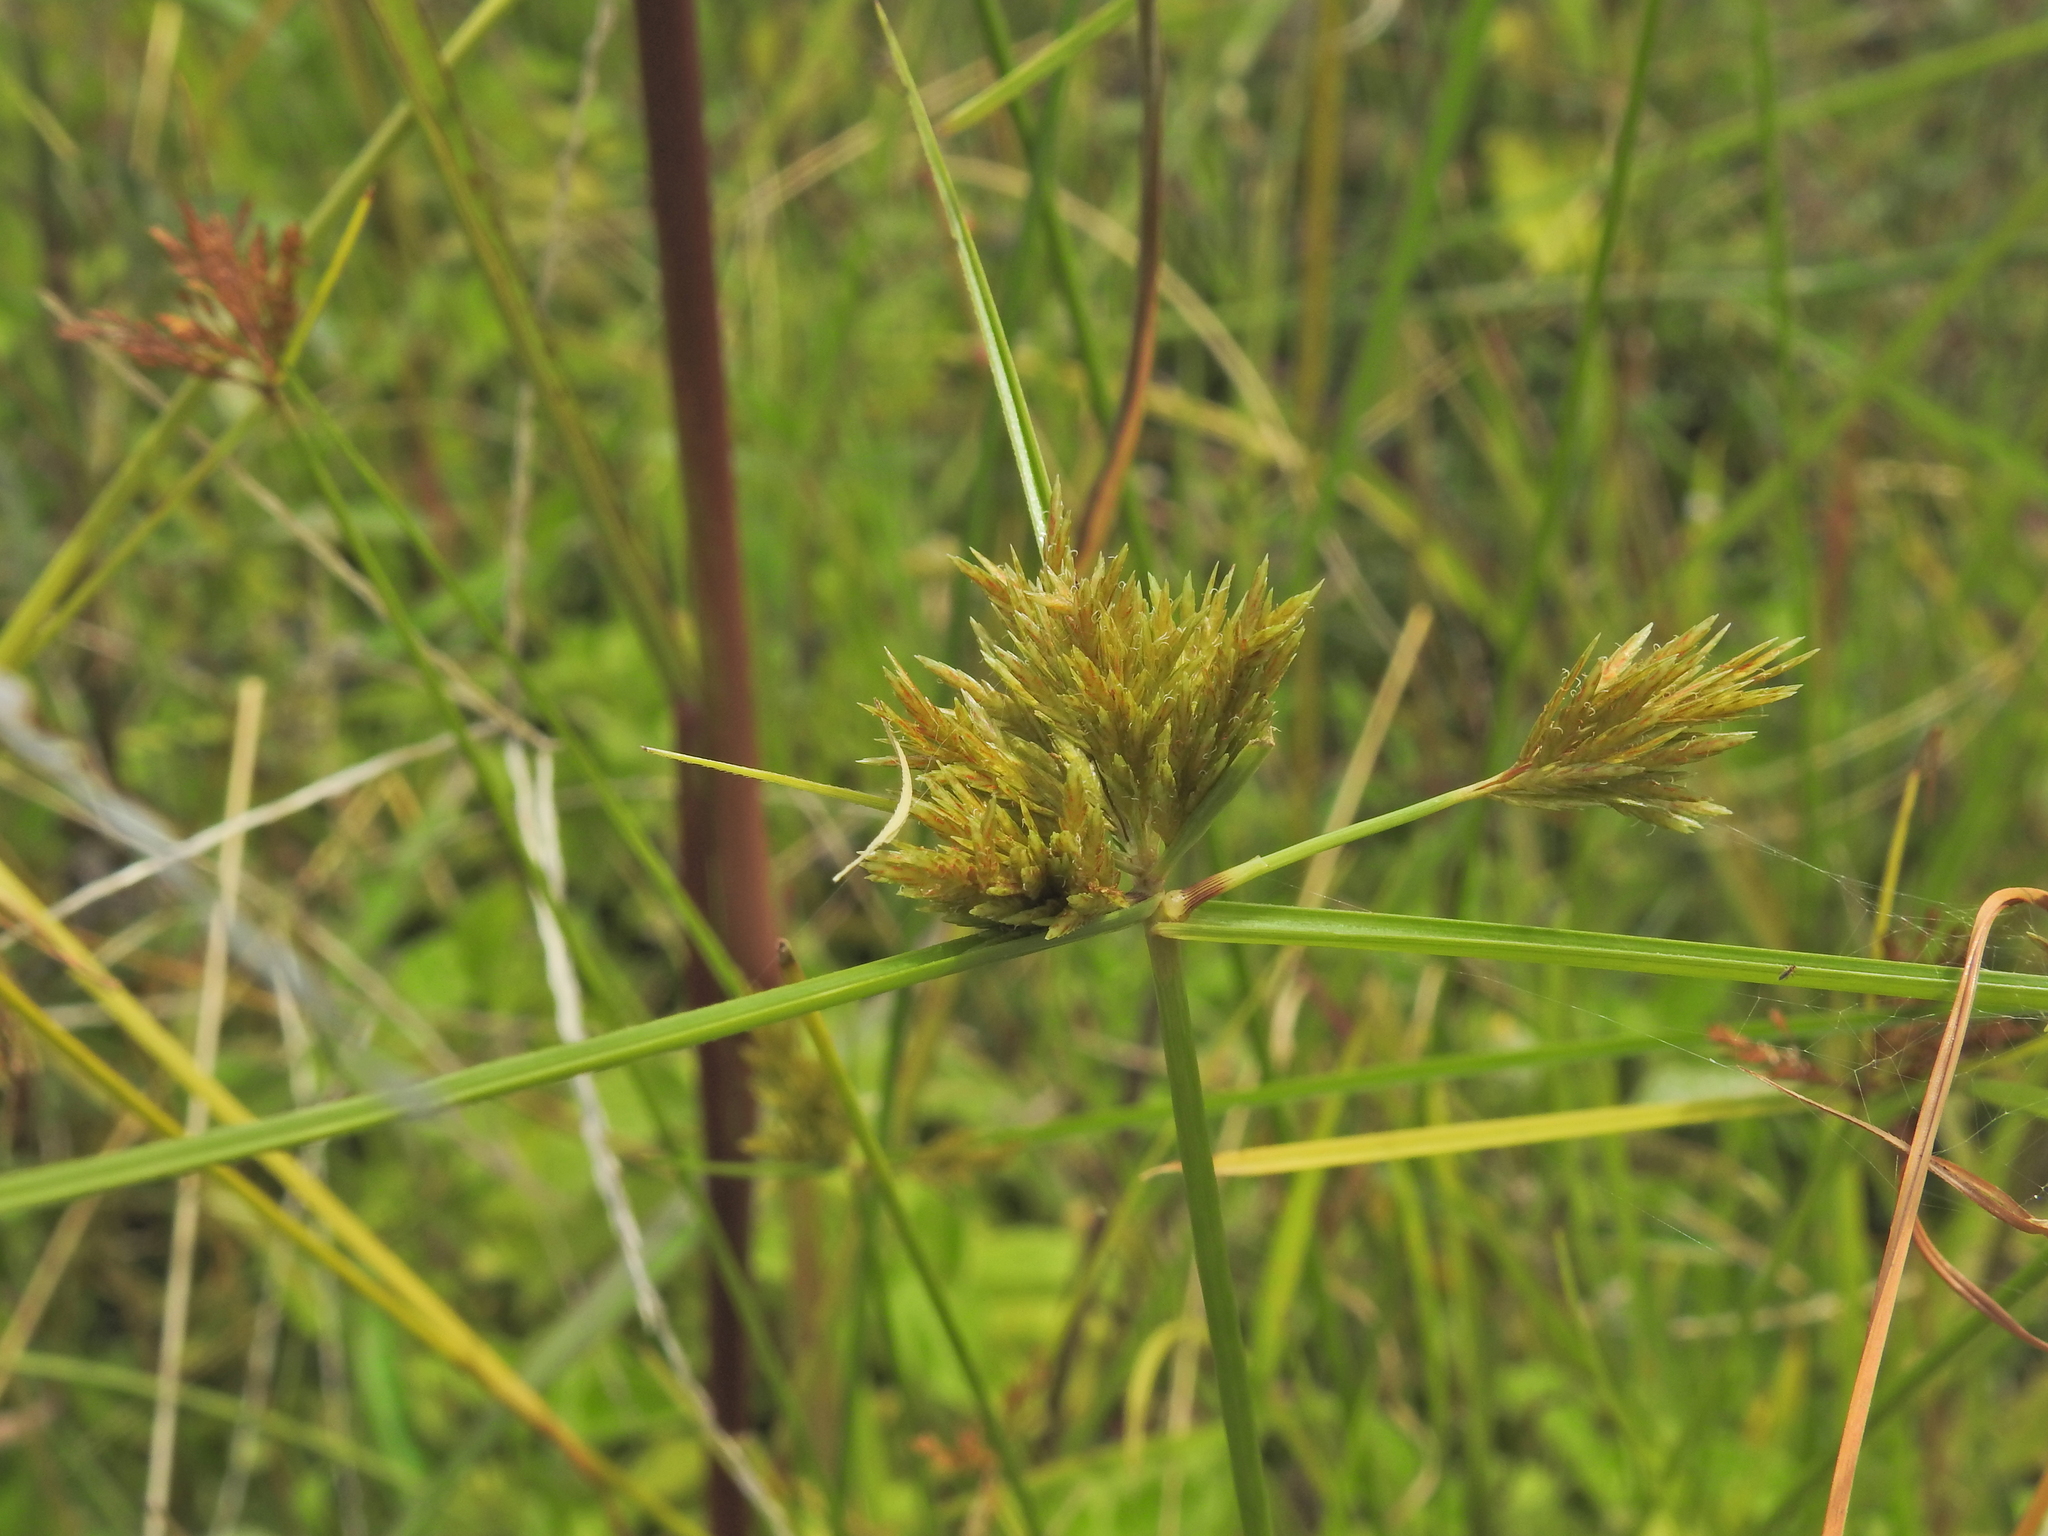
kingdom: Plantae
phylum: Tracheophyta
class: Liliopsida
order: Poales
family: Cyperaceae
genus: Cyperus
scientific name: Cyperus polystachyos
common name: Bunchy flat sedge
